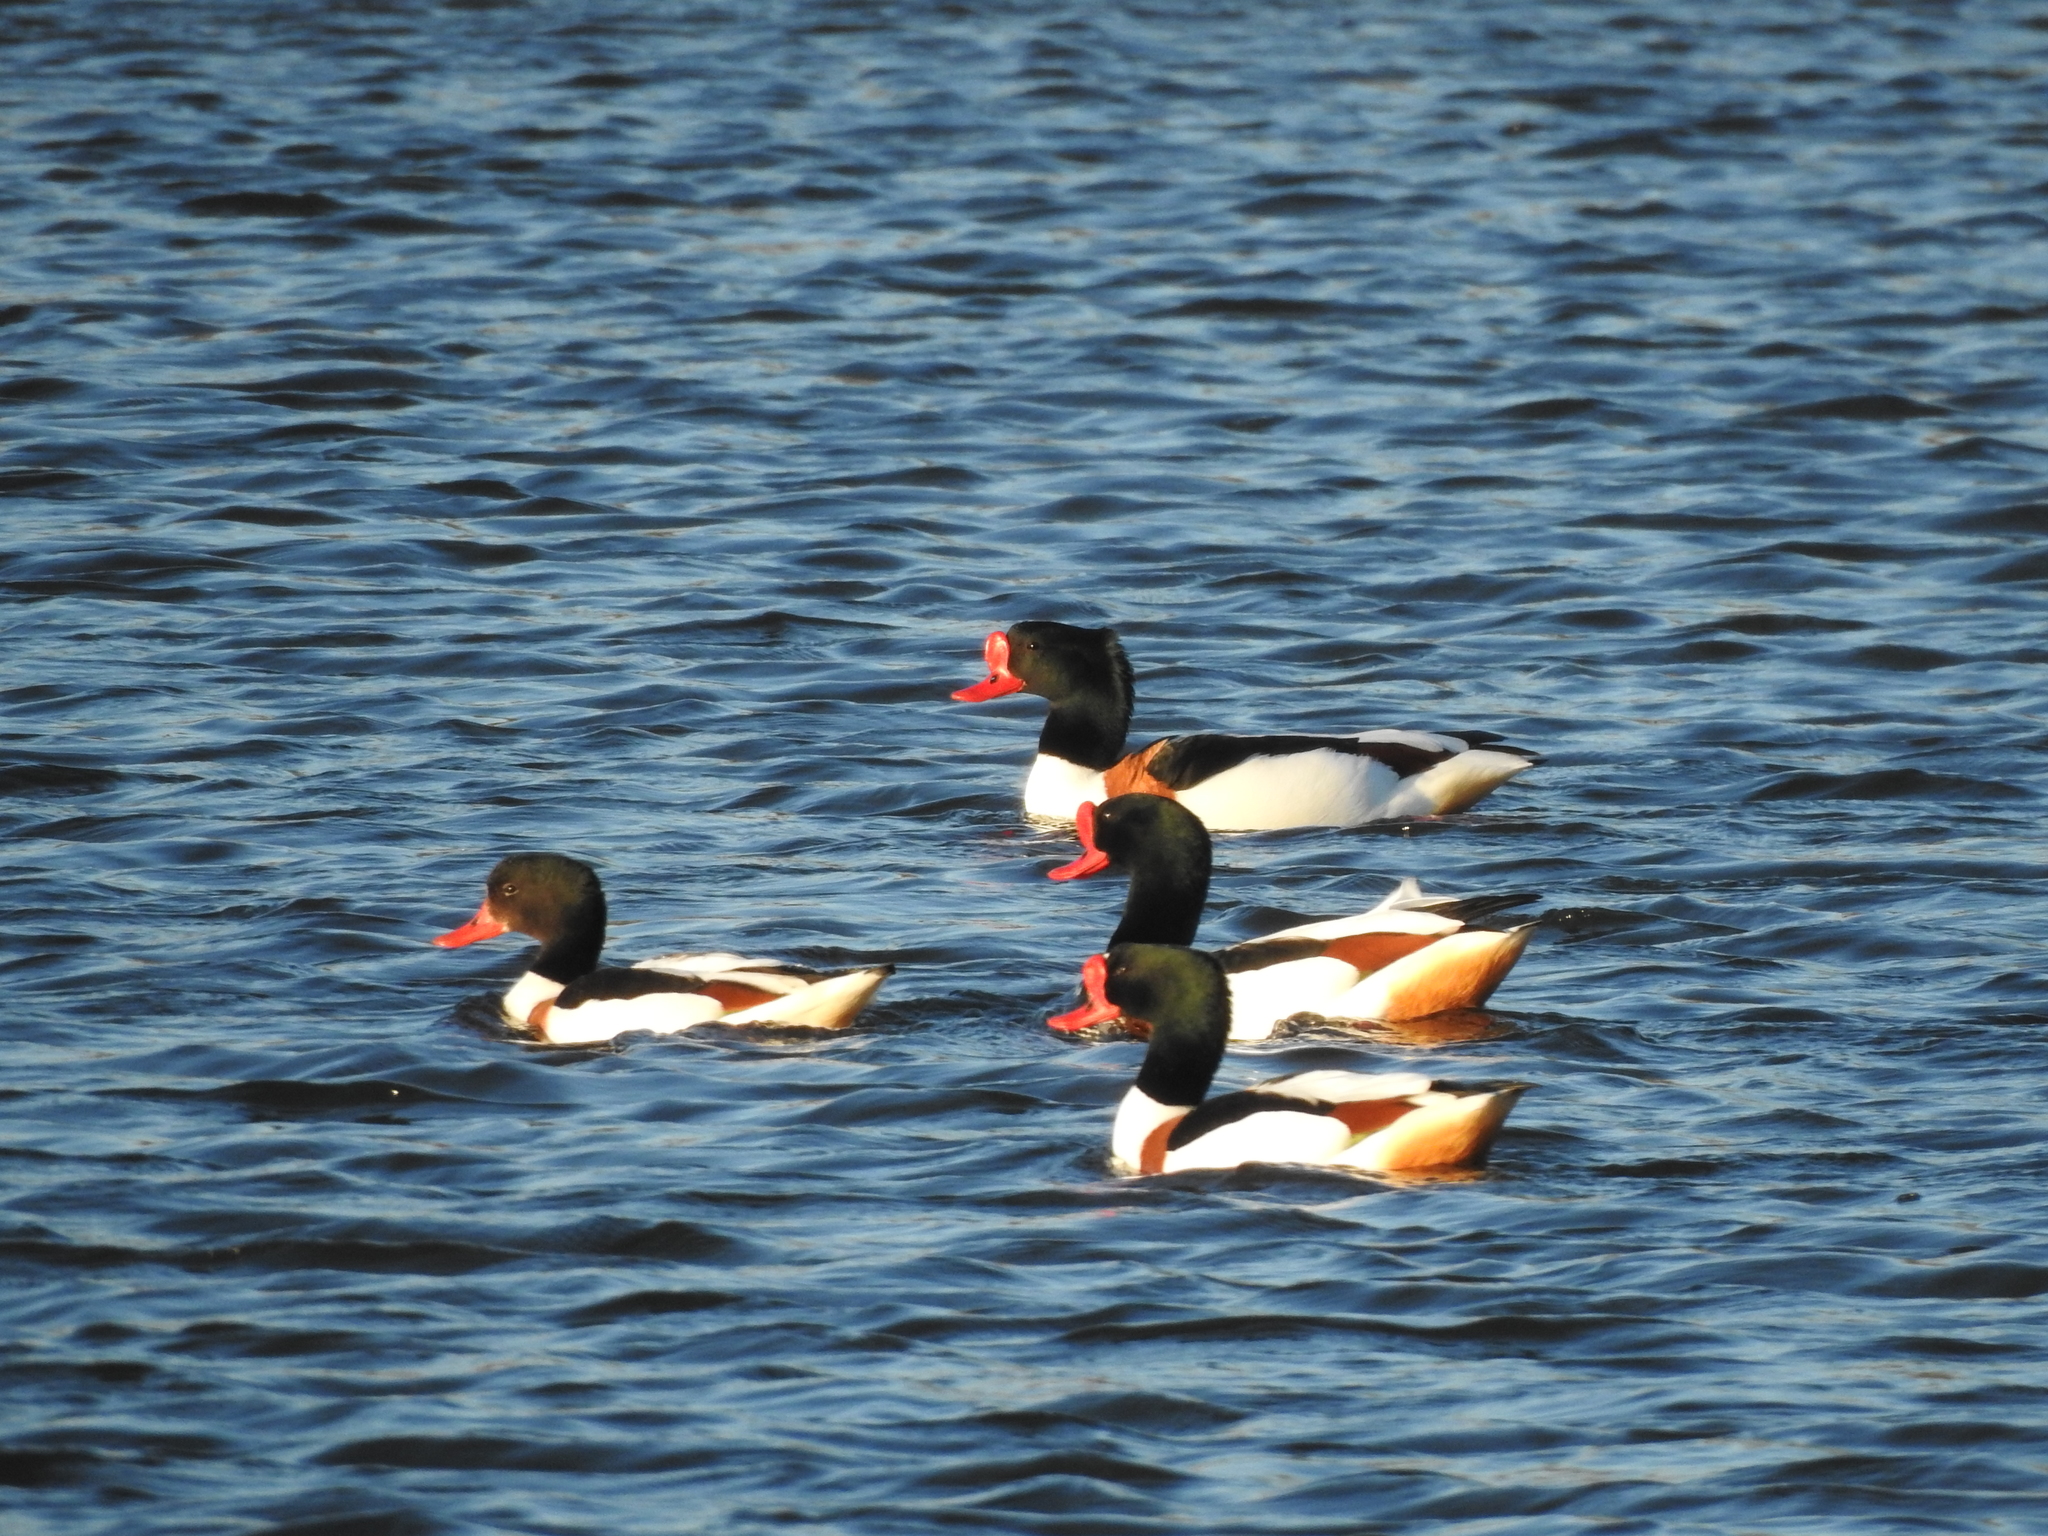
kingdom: Animalia
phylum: Chordata
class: Aves
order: Anseriformes
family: Anatidae
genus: Tadorna
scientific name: Tadorna tadorna
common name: Common shelduck
